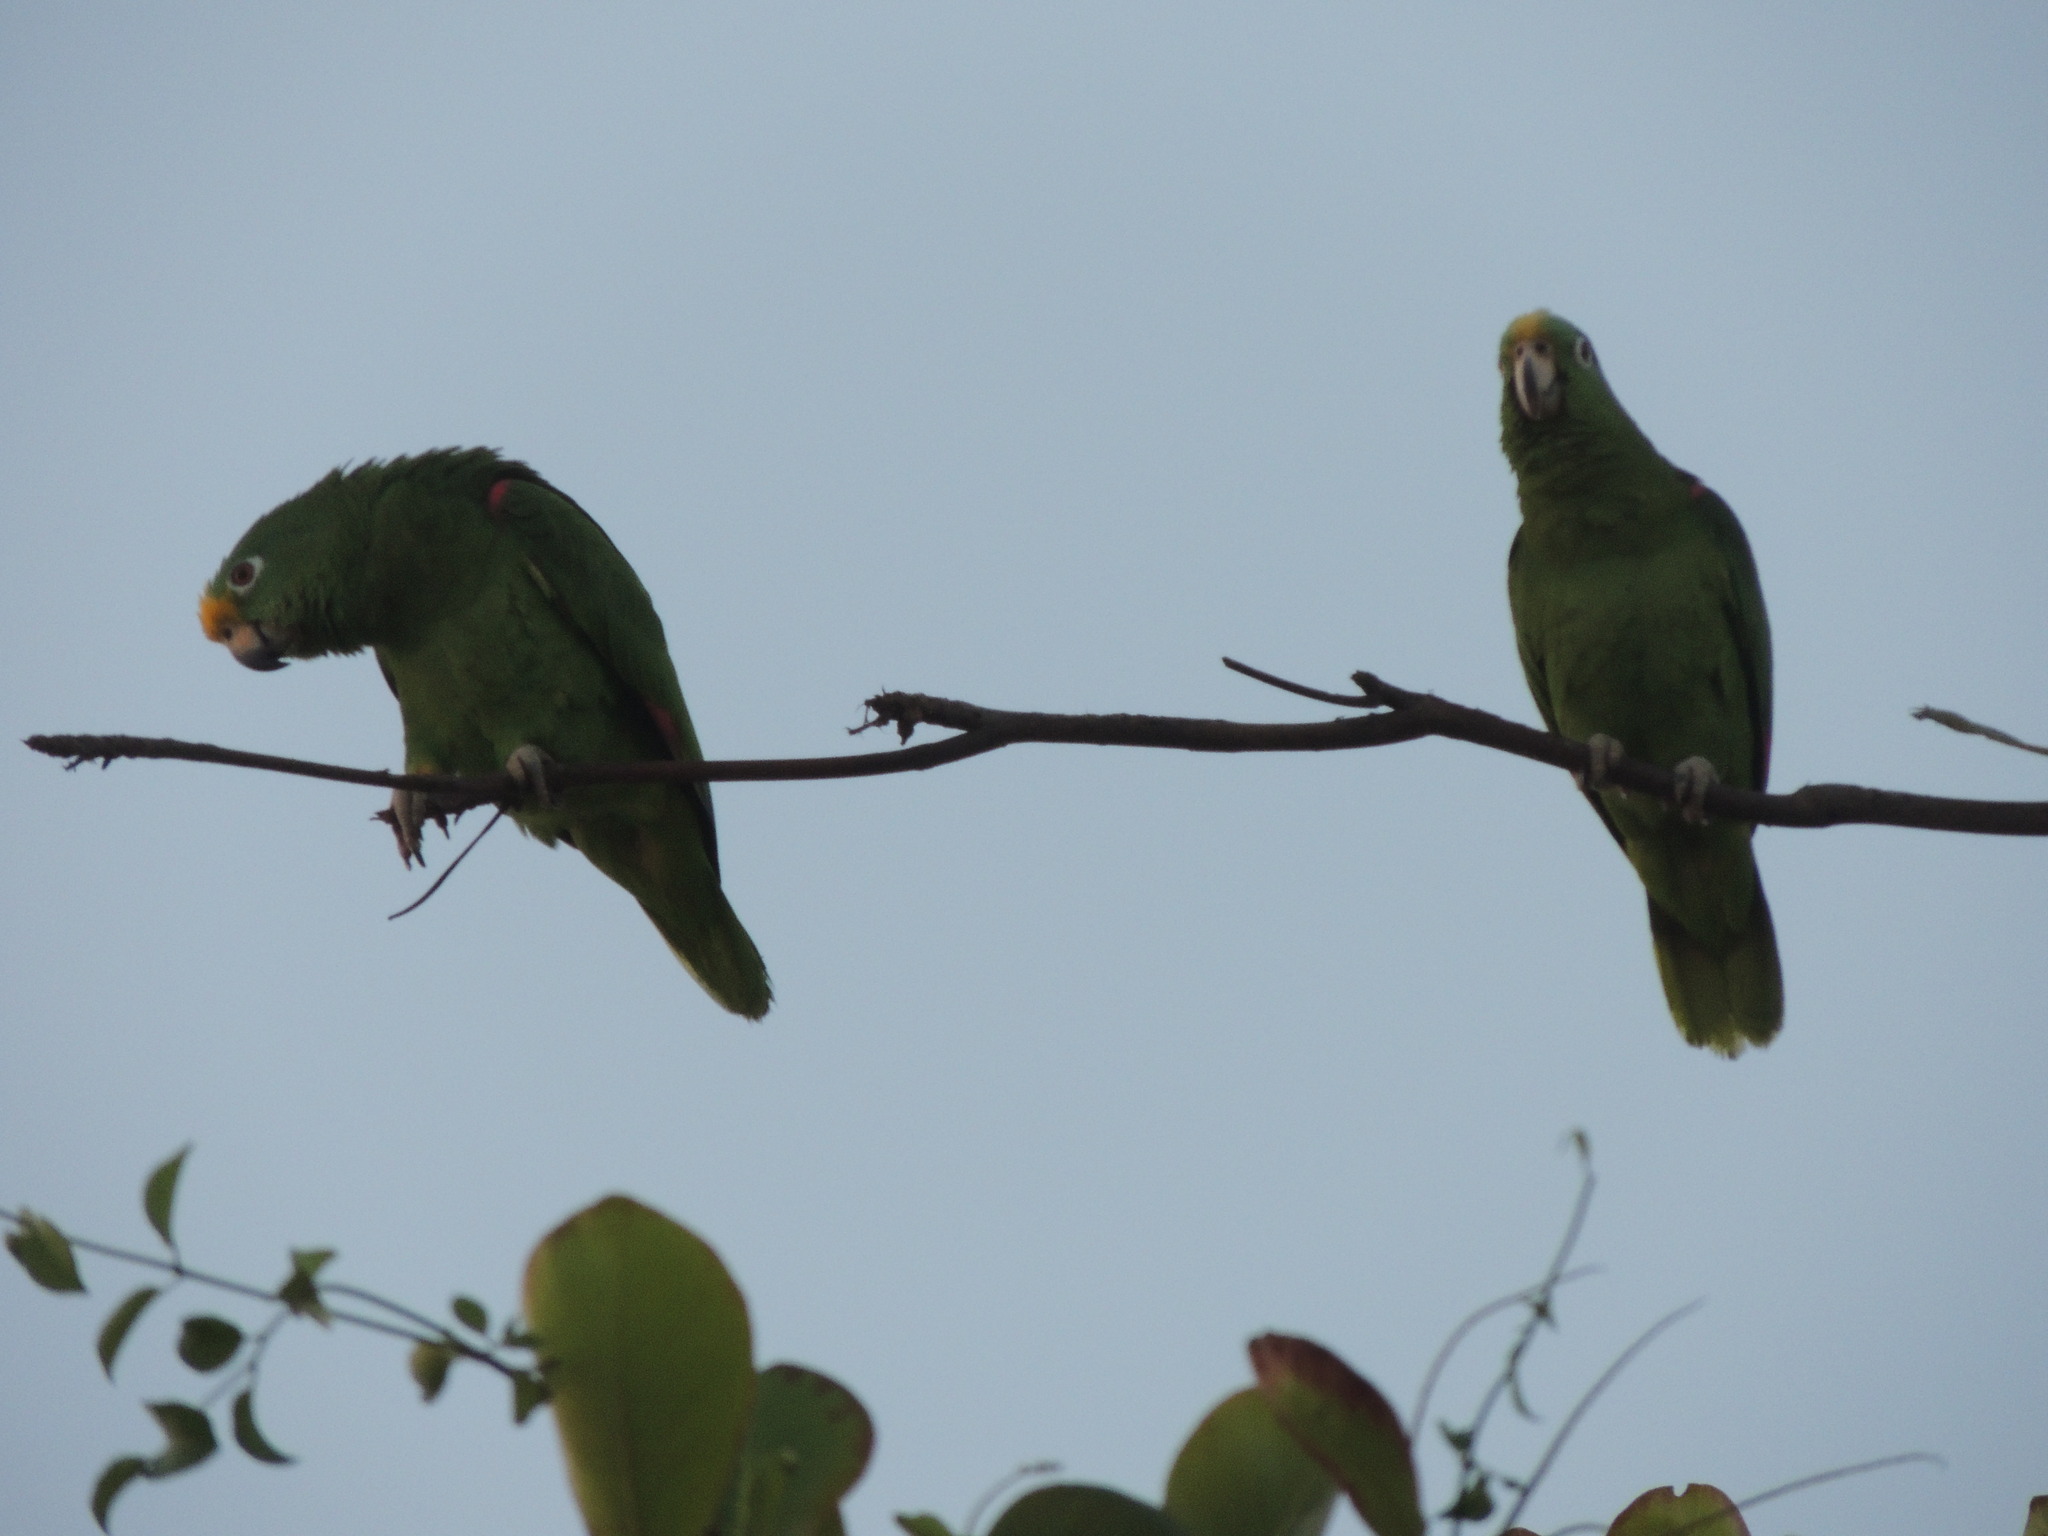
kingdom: Animalia
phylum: Chordata
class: Aves
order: Psittaciformes
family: Psittacidae
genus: Amazona
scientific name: Amazona ochrocephala
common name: Yellow-crowned amazon
